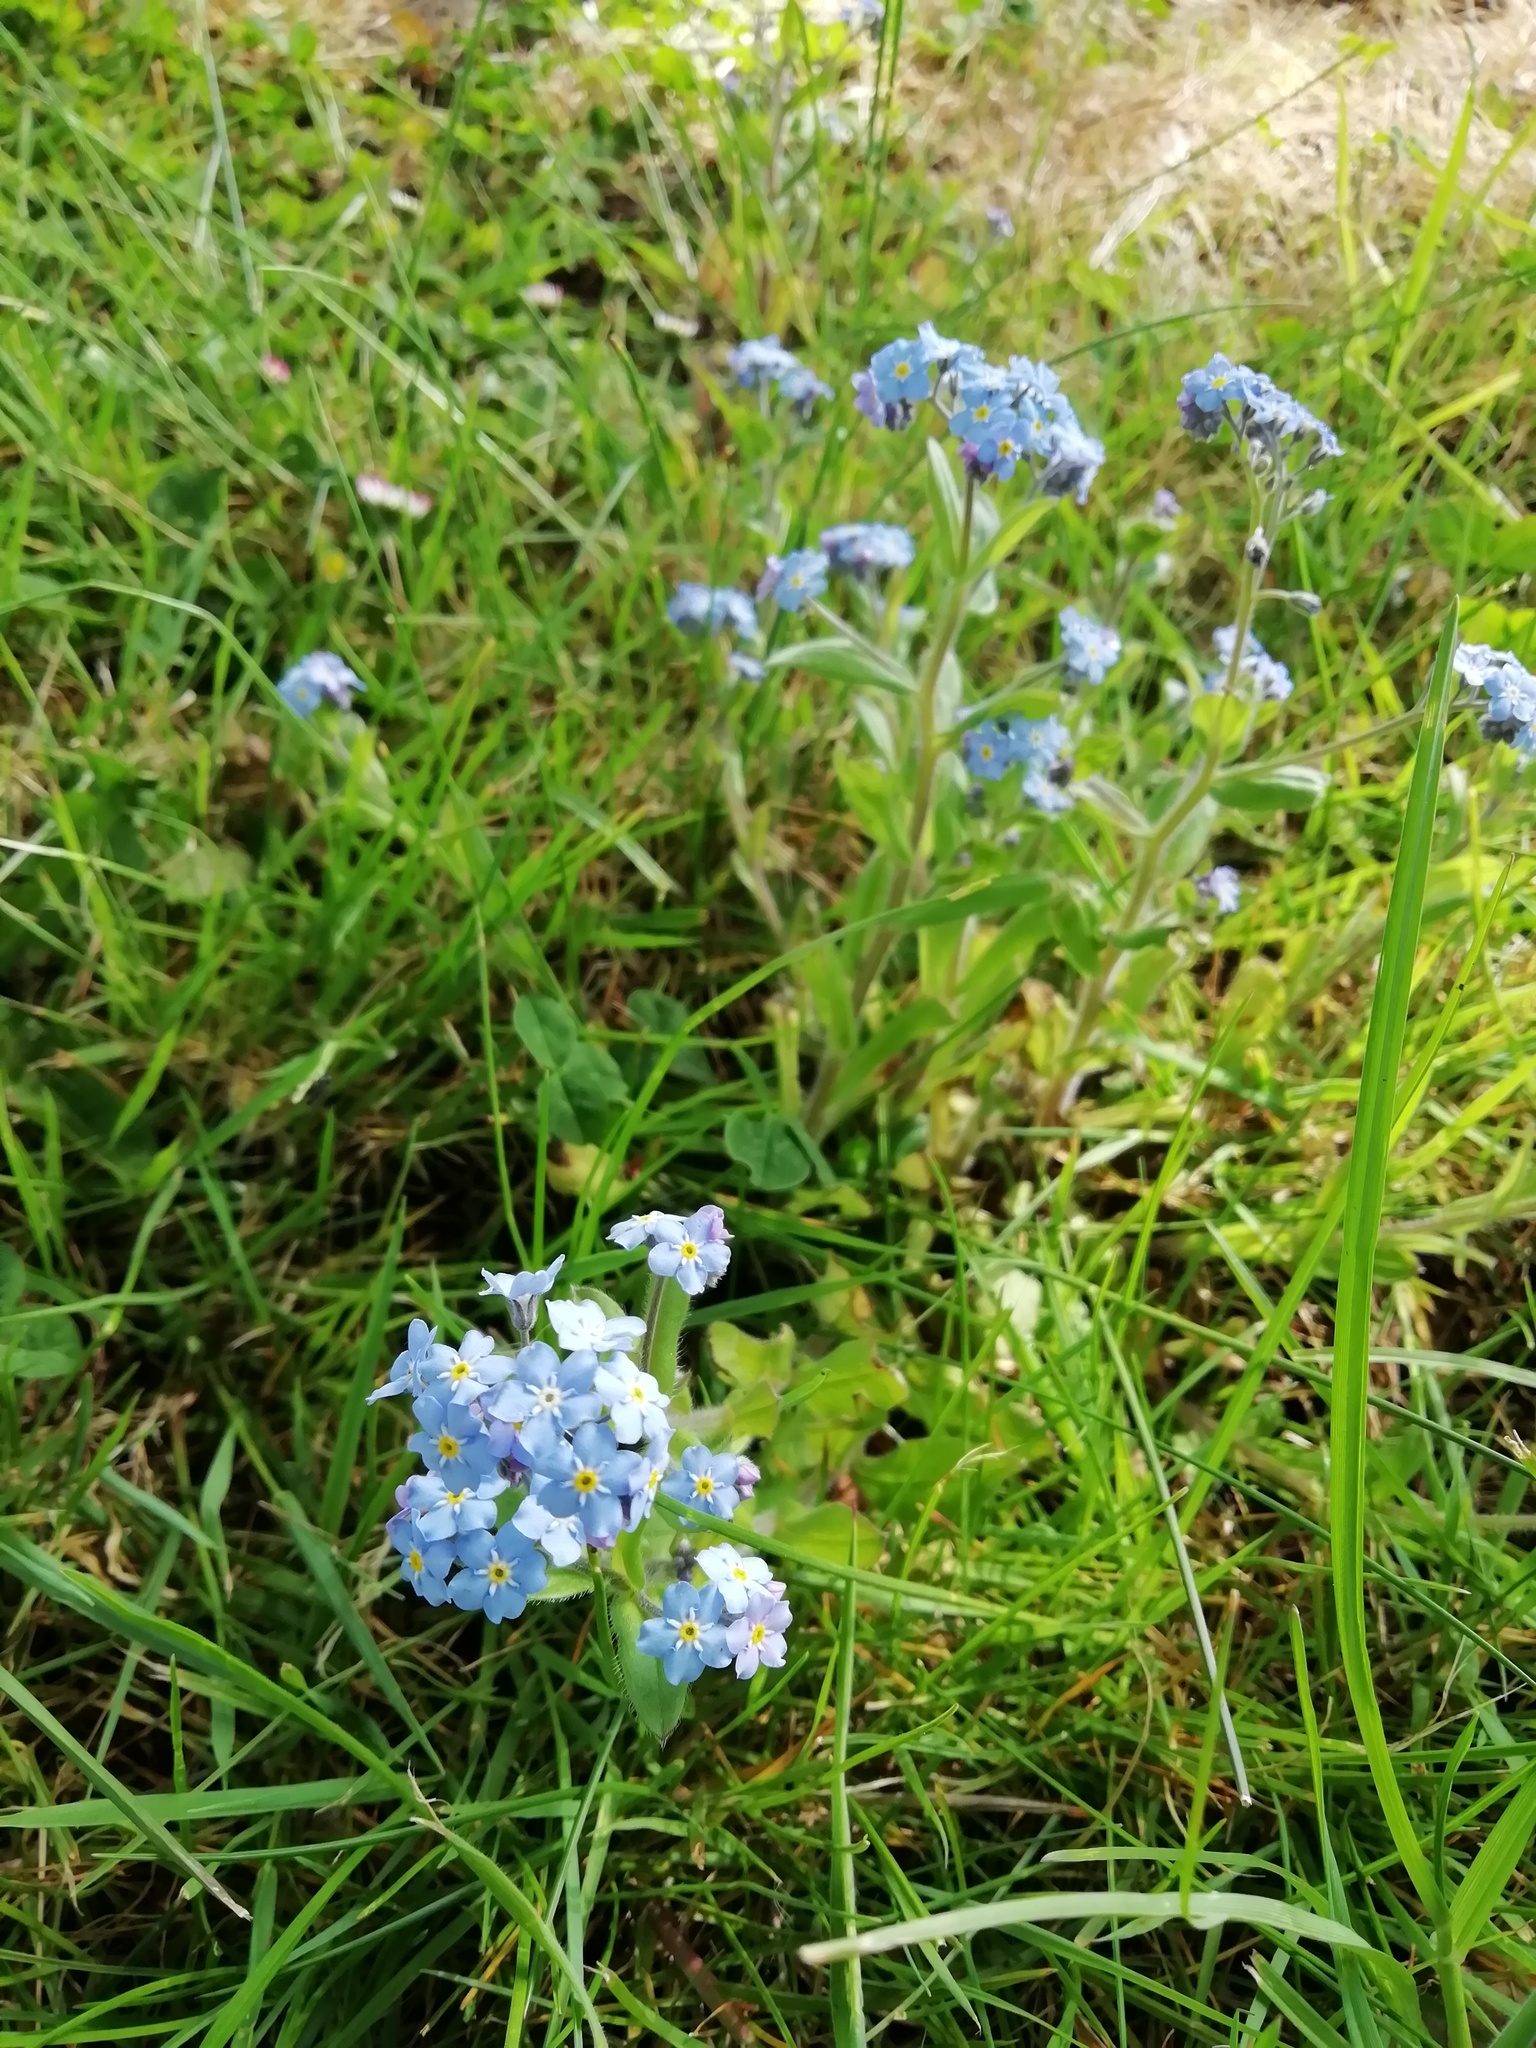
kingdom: Plantae
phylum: Tracheophyta
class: Magnoliopsida
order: Boraginales
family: Boraginaceae
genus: Myosotis
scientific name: Myosotis sylvatica
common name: Wood forget-me-not
